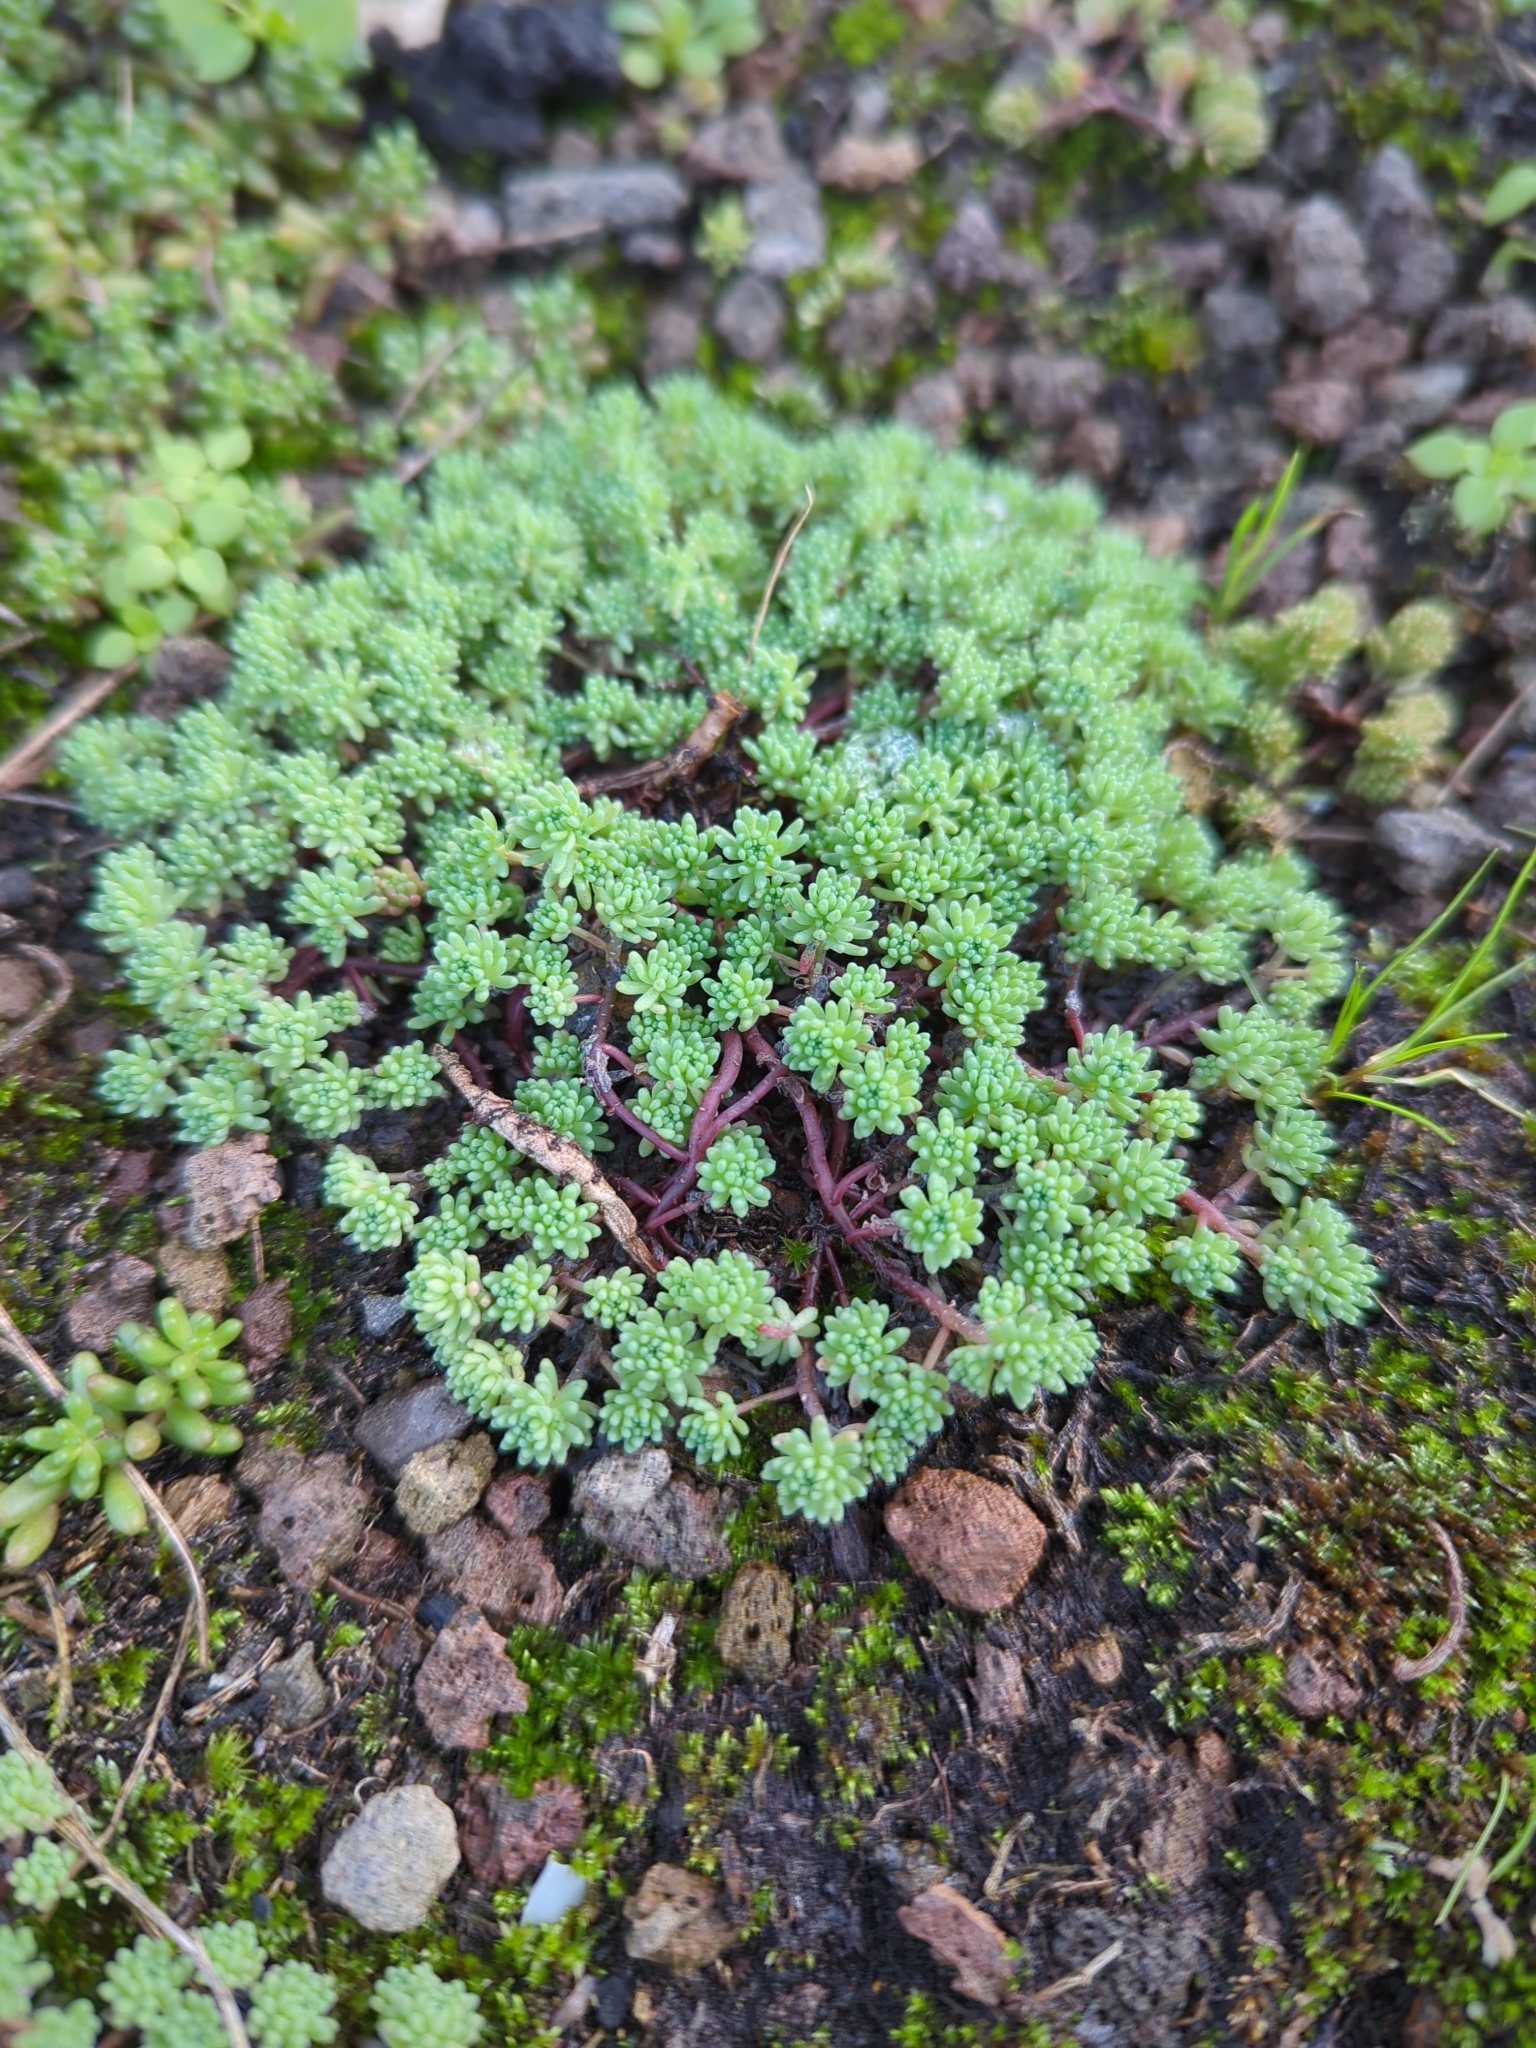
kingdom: Plantae
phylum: Tracheophyta
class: Magnoliopsida
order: Saxifragales
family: Crassulaceae
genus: Sedum
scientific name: Sedum pallidum
